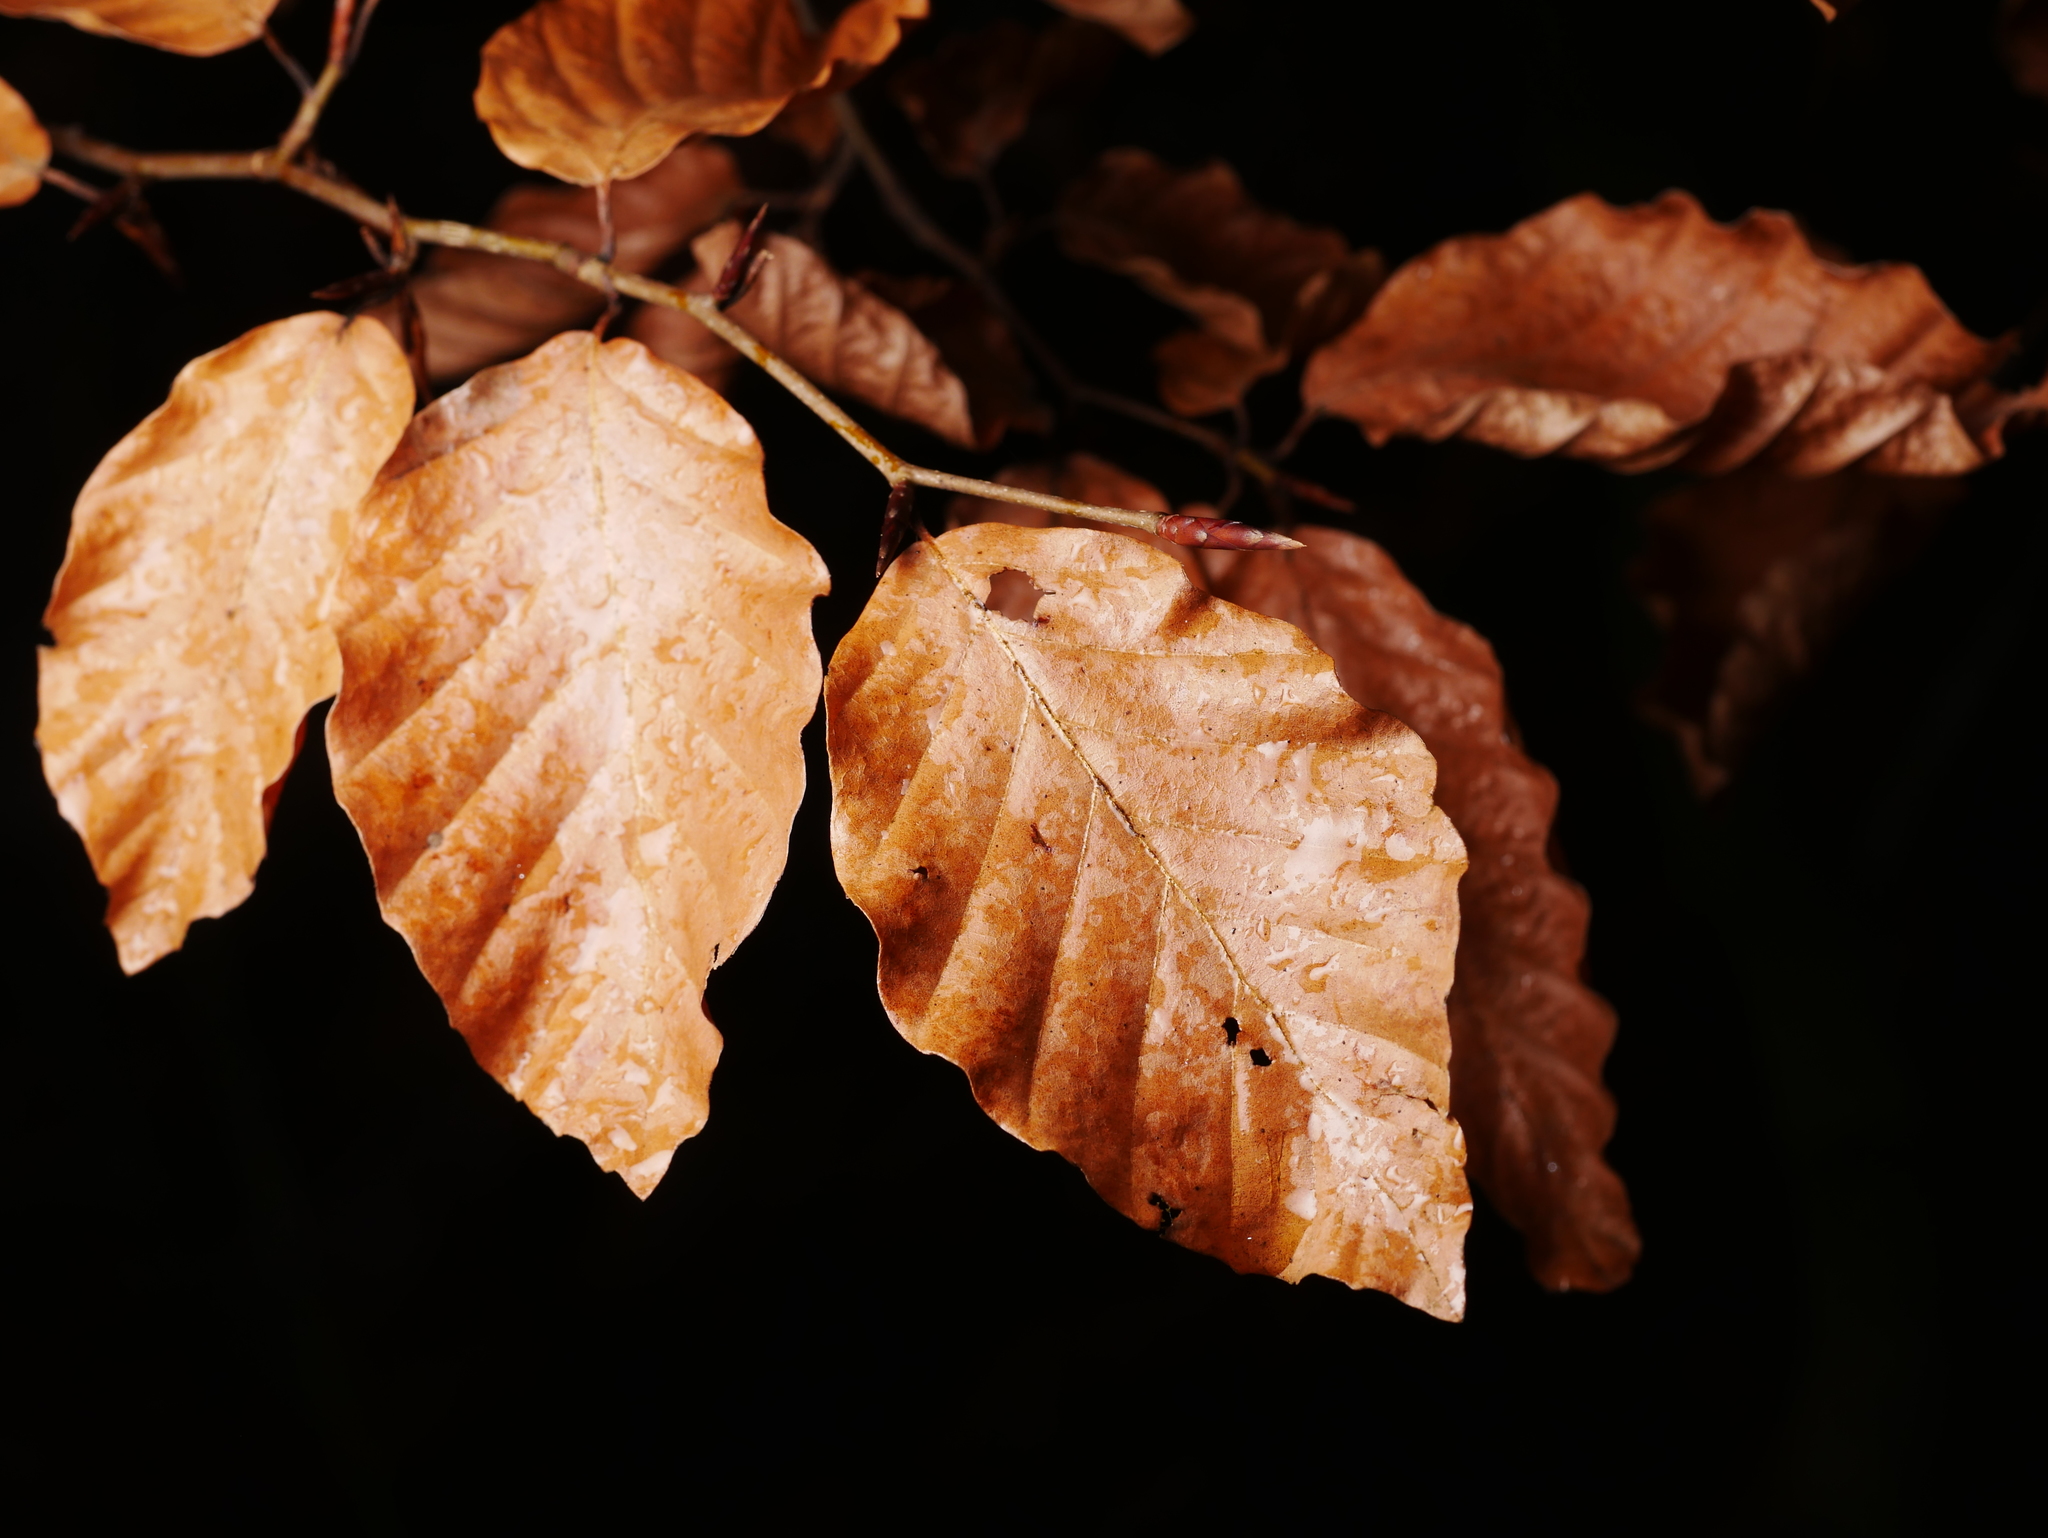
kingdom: Plantae
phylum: Tracheophyta
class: Magnoliopsida
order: Fagales
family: Fagaceae
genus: Fagus
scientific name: Fagus sylvatica
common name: Beech
